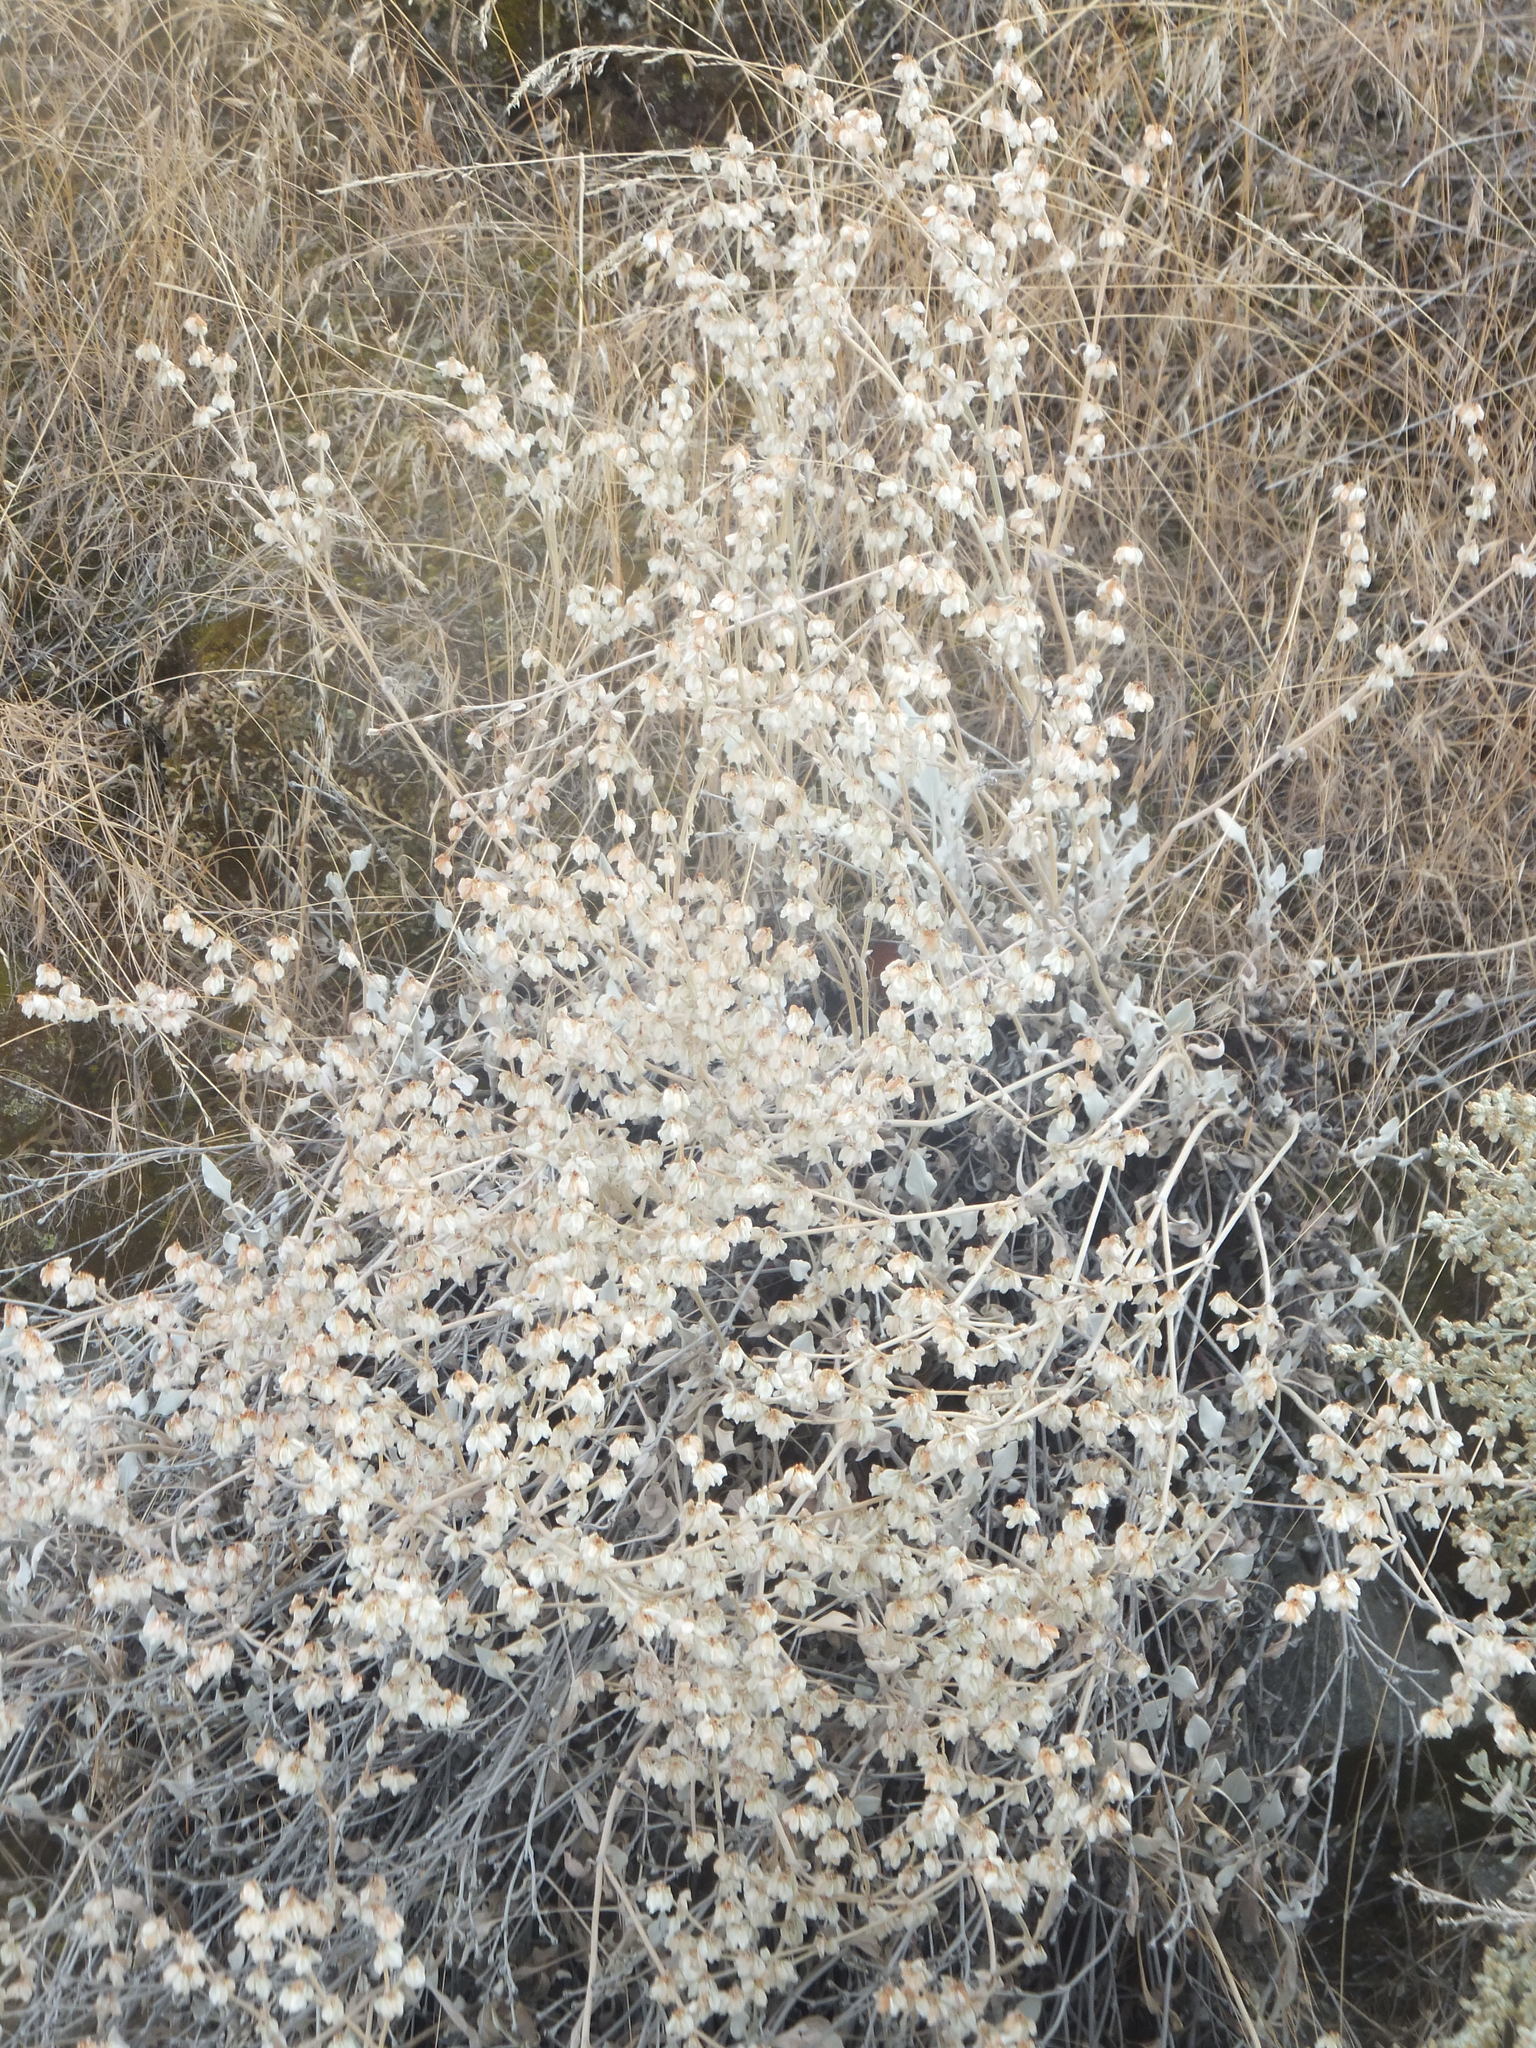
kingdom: Plantae
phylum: Tracheophyta
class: Magnoliopsida
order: Caryophyllales
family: Polygonaceae
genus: Eriogonum
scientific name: Eriogonum niveum
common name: Snow wild buckwheat
